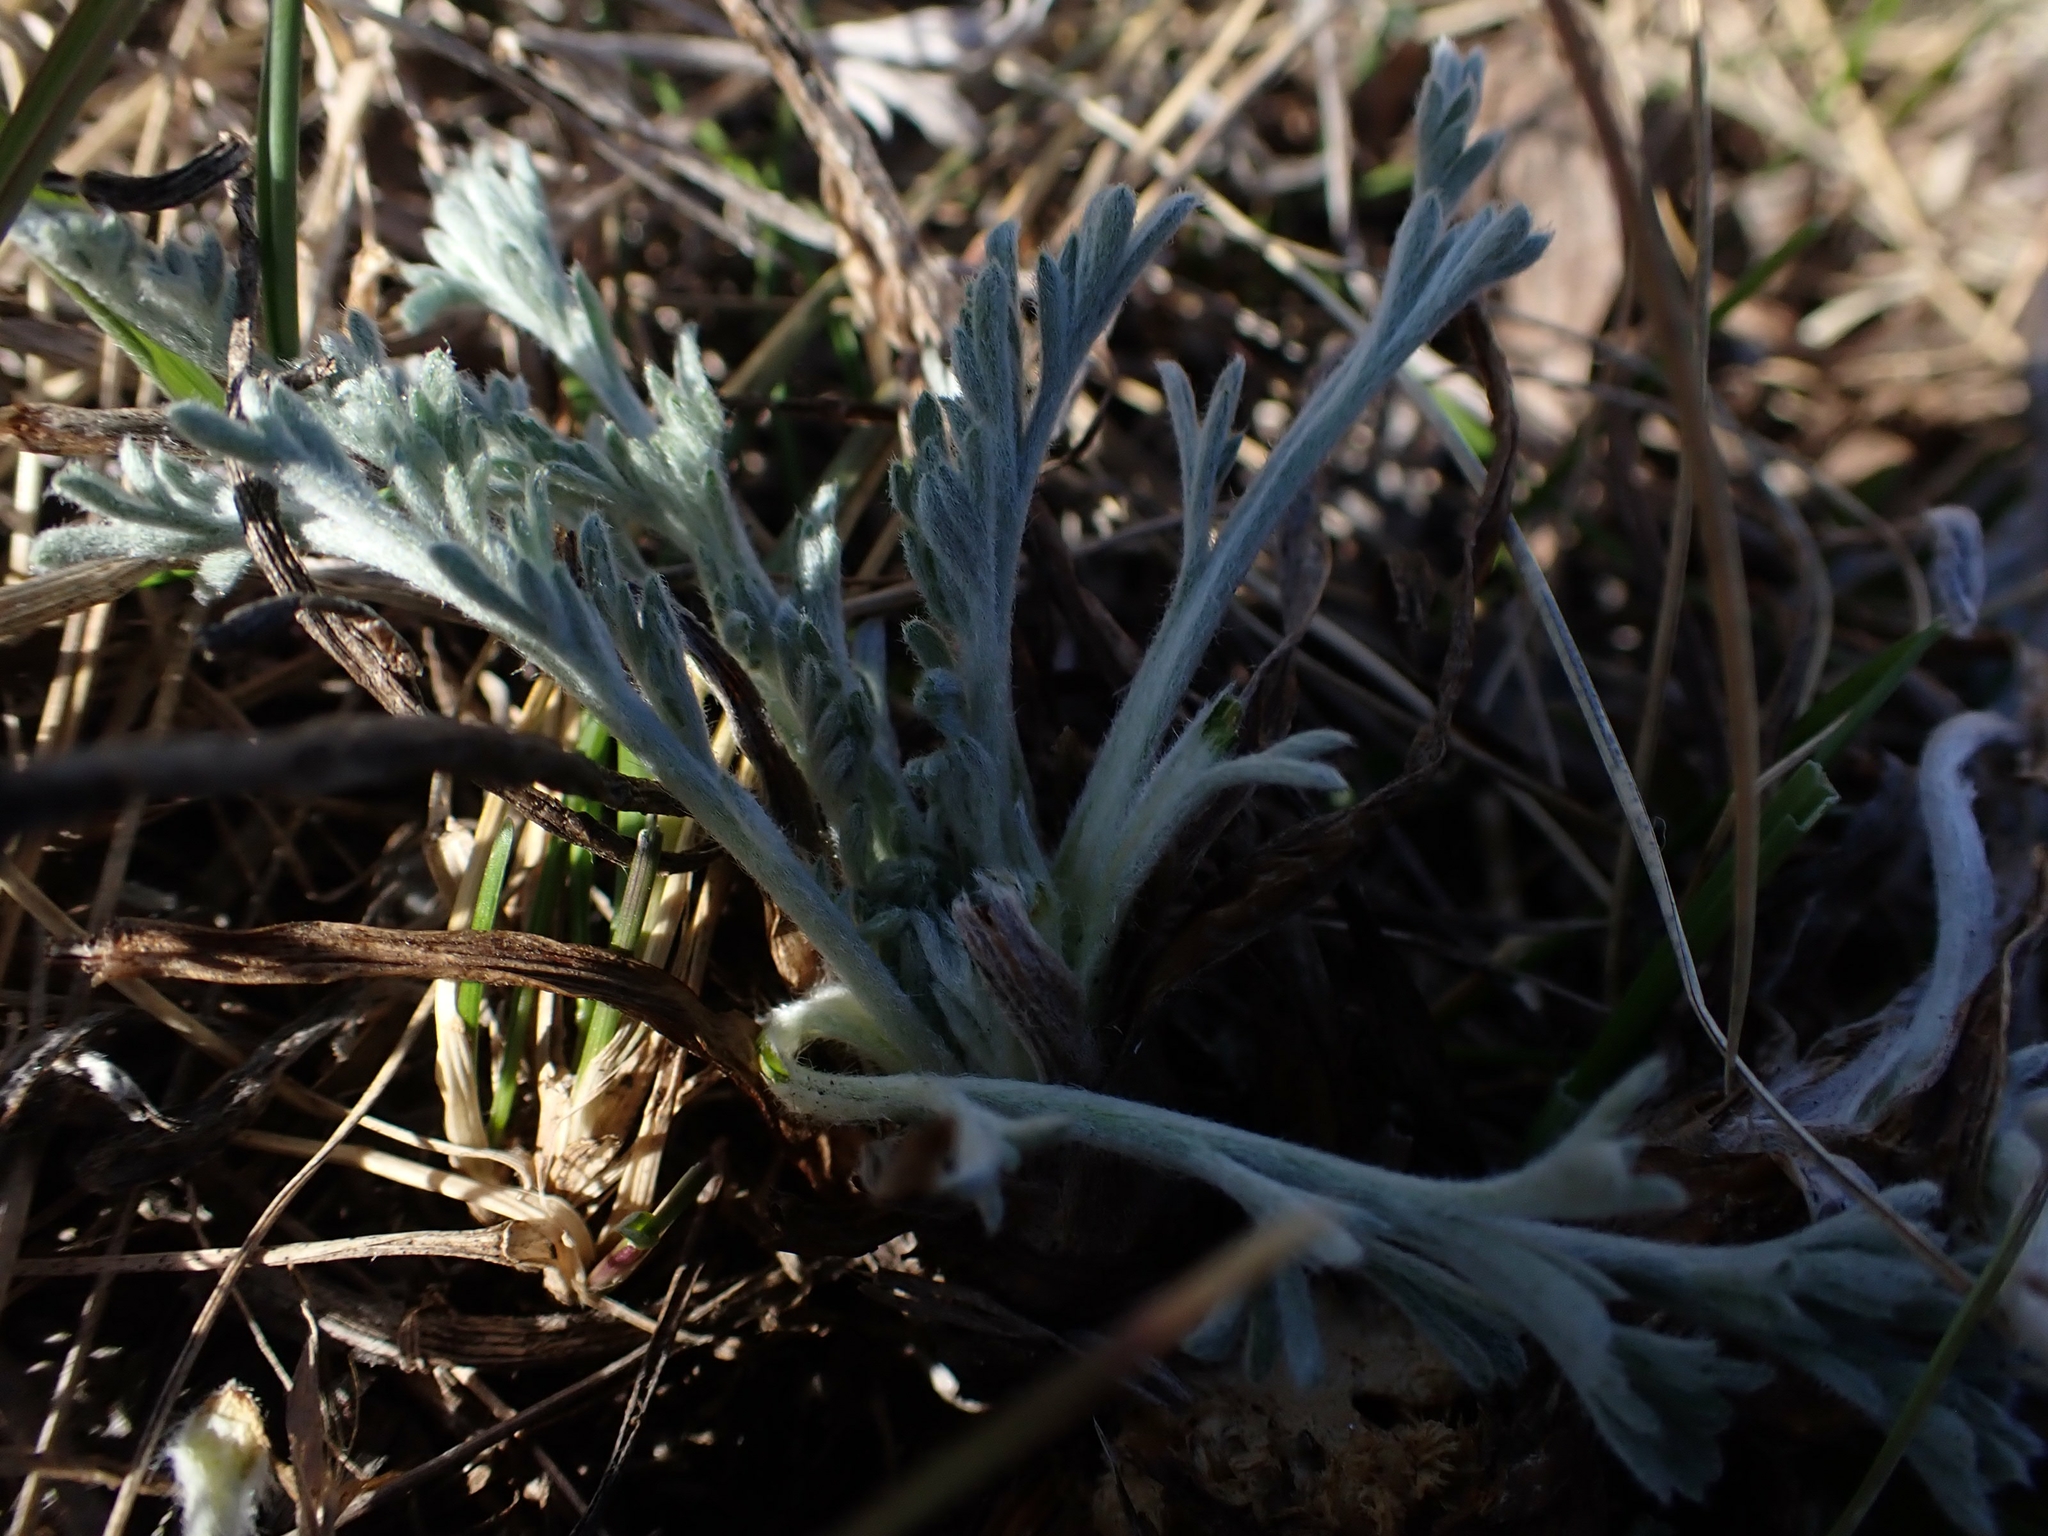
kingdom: Plantae
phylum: Tracheophyta
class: Magnoliopsida
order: Asterales
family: Asteraceae
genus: Artemisia
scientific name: Artemisia campestris
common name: Field wormwood
